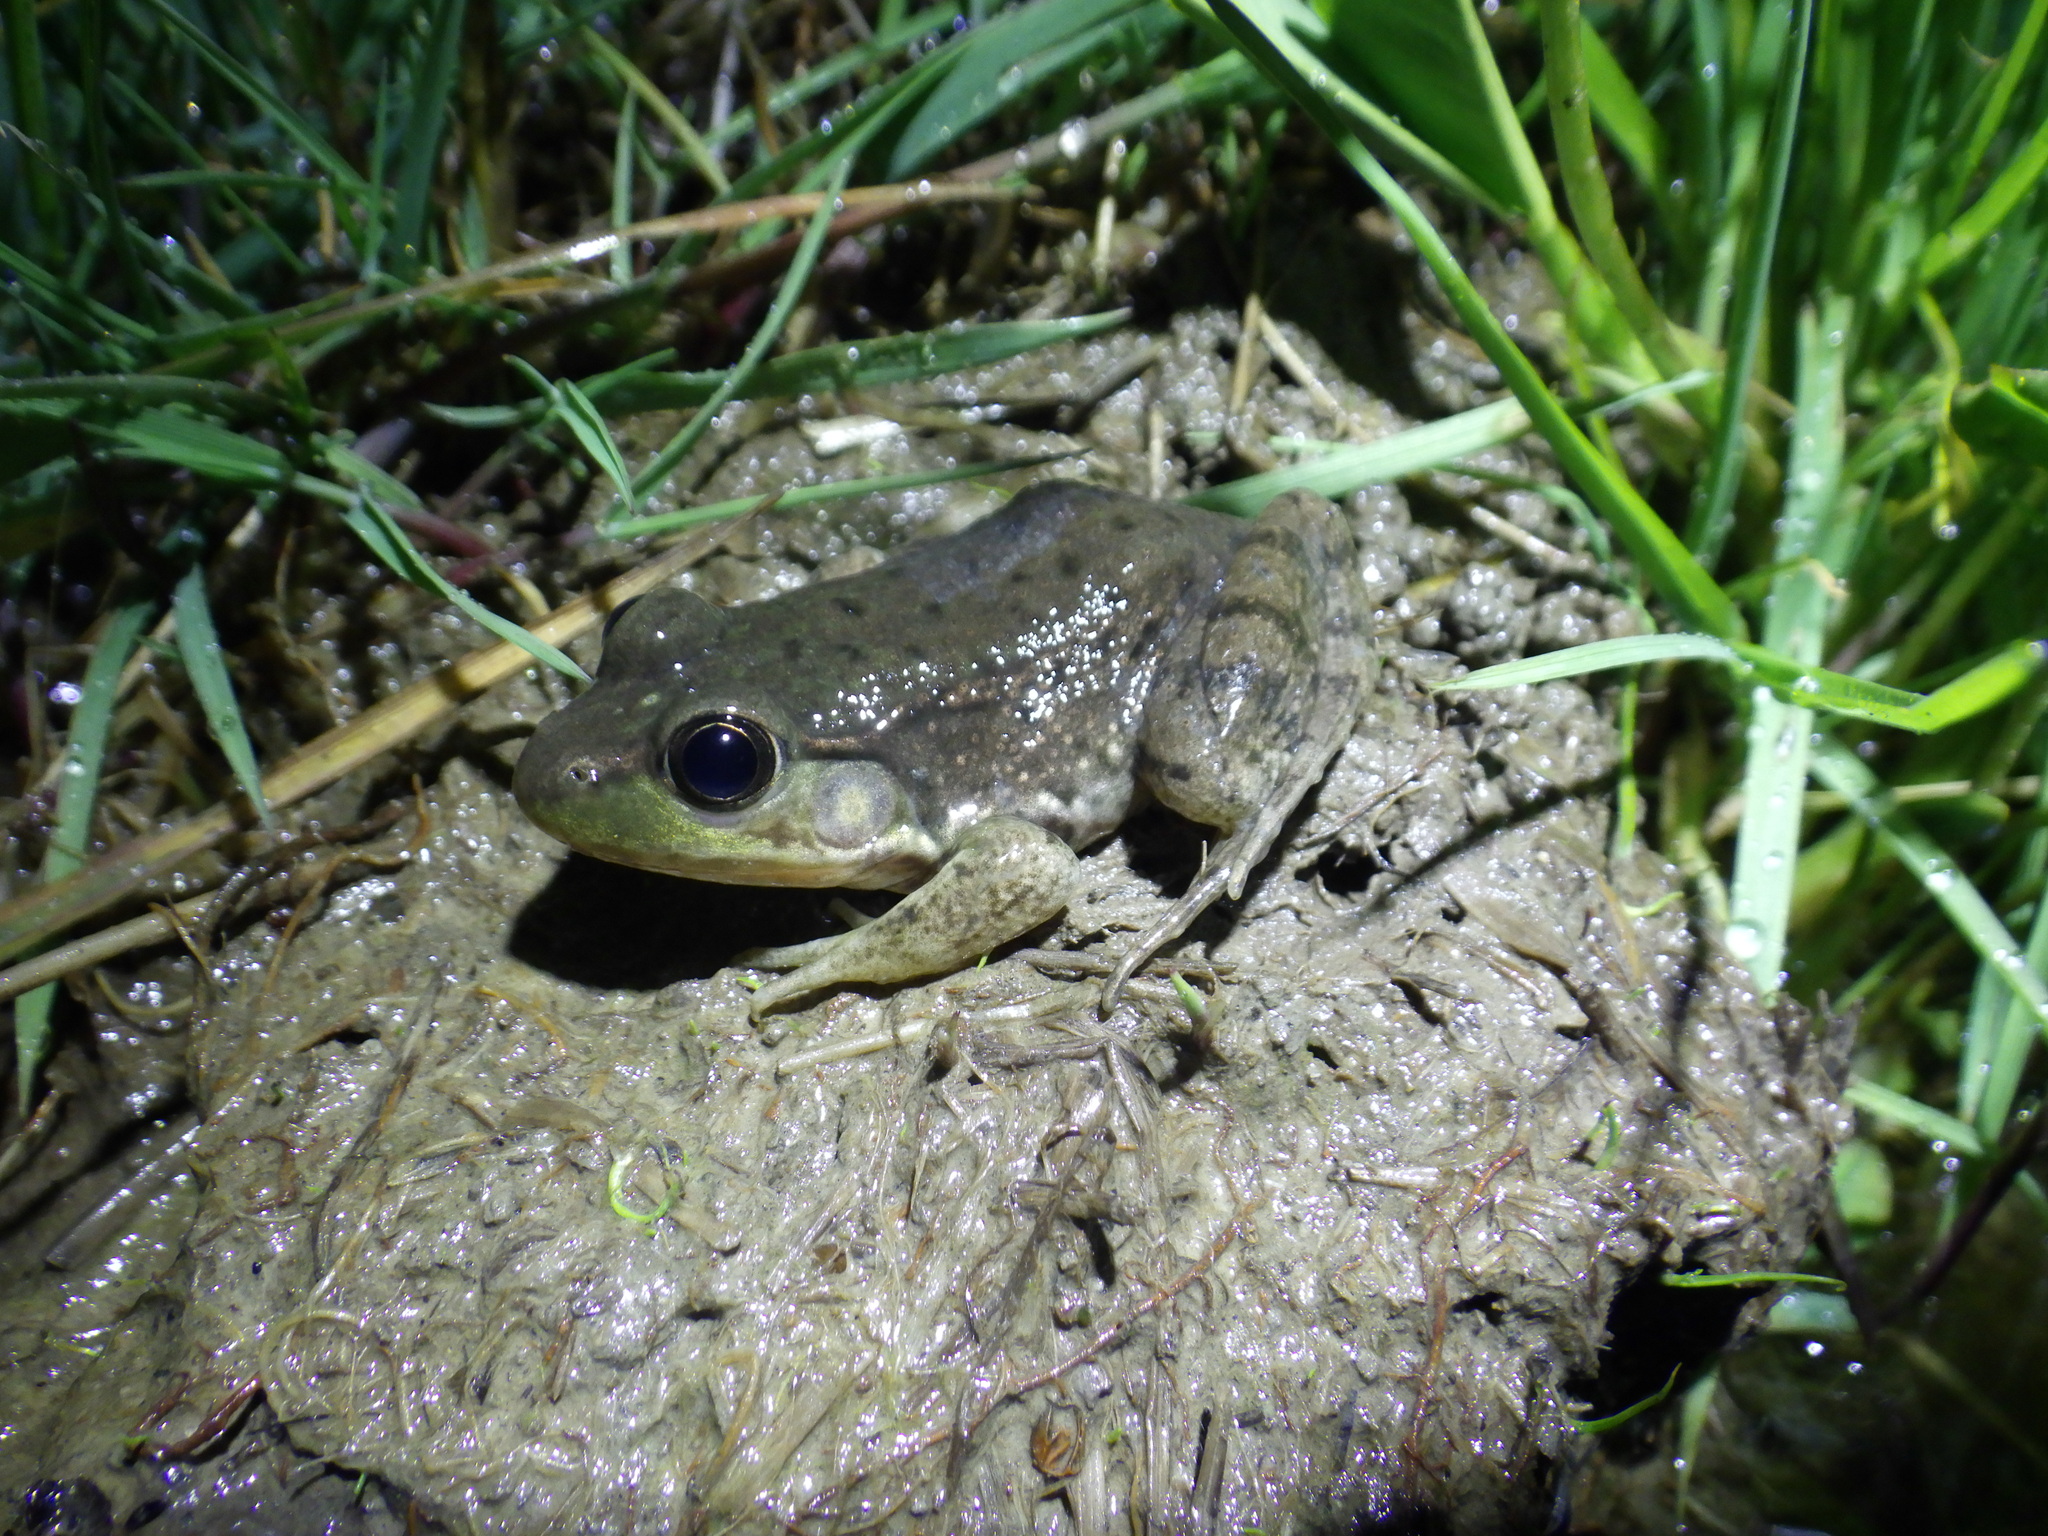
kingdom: Animalia
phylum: Chordata
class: Amphibia
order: Anura
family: Ranidae
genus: Lithobates
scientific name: Lithobates clamitans
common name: Green frog
